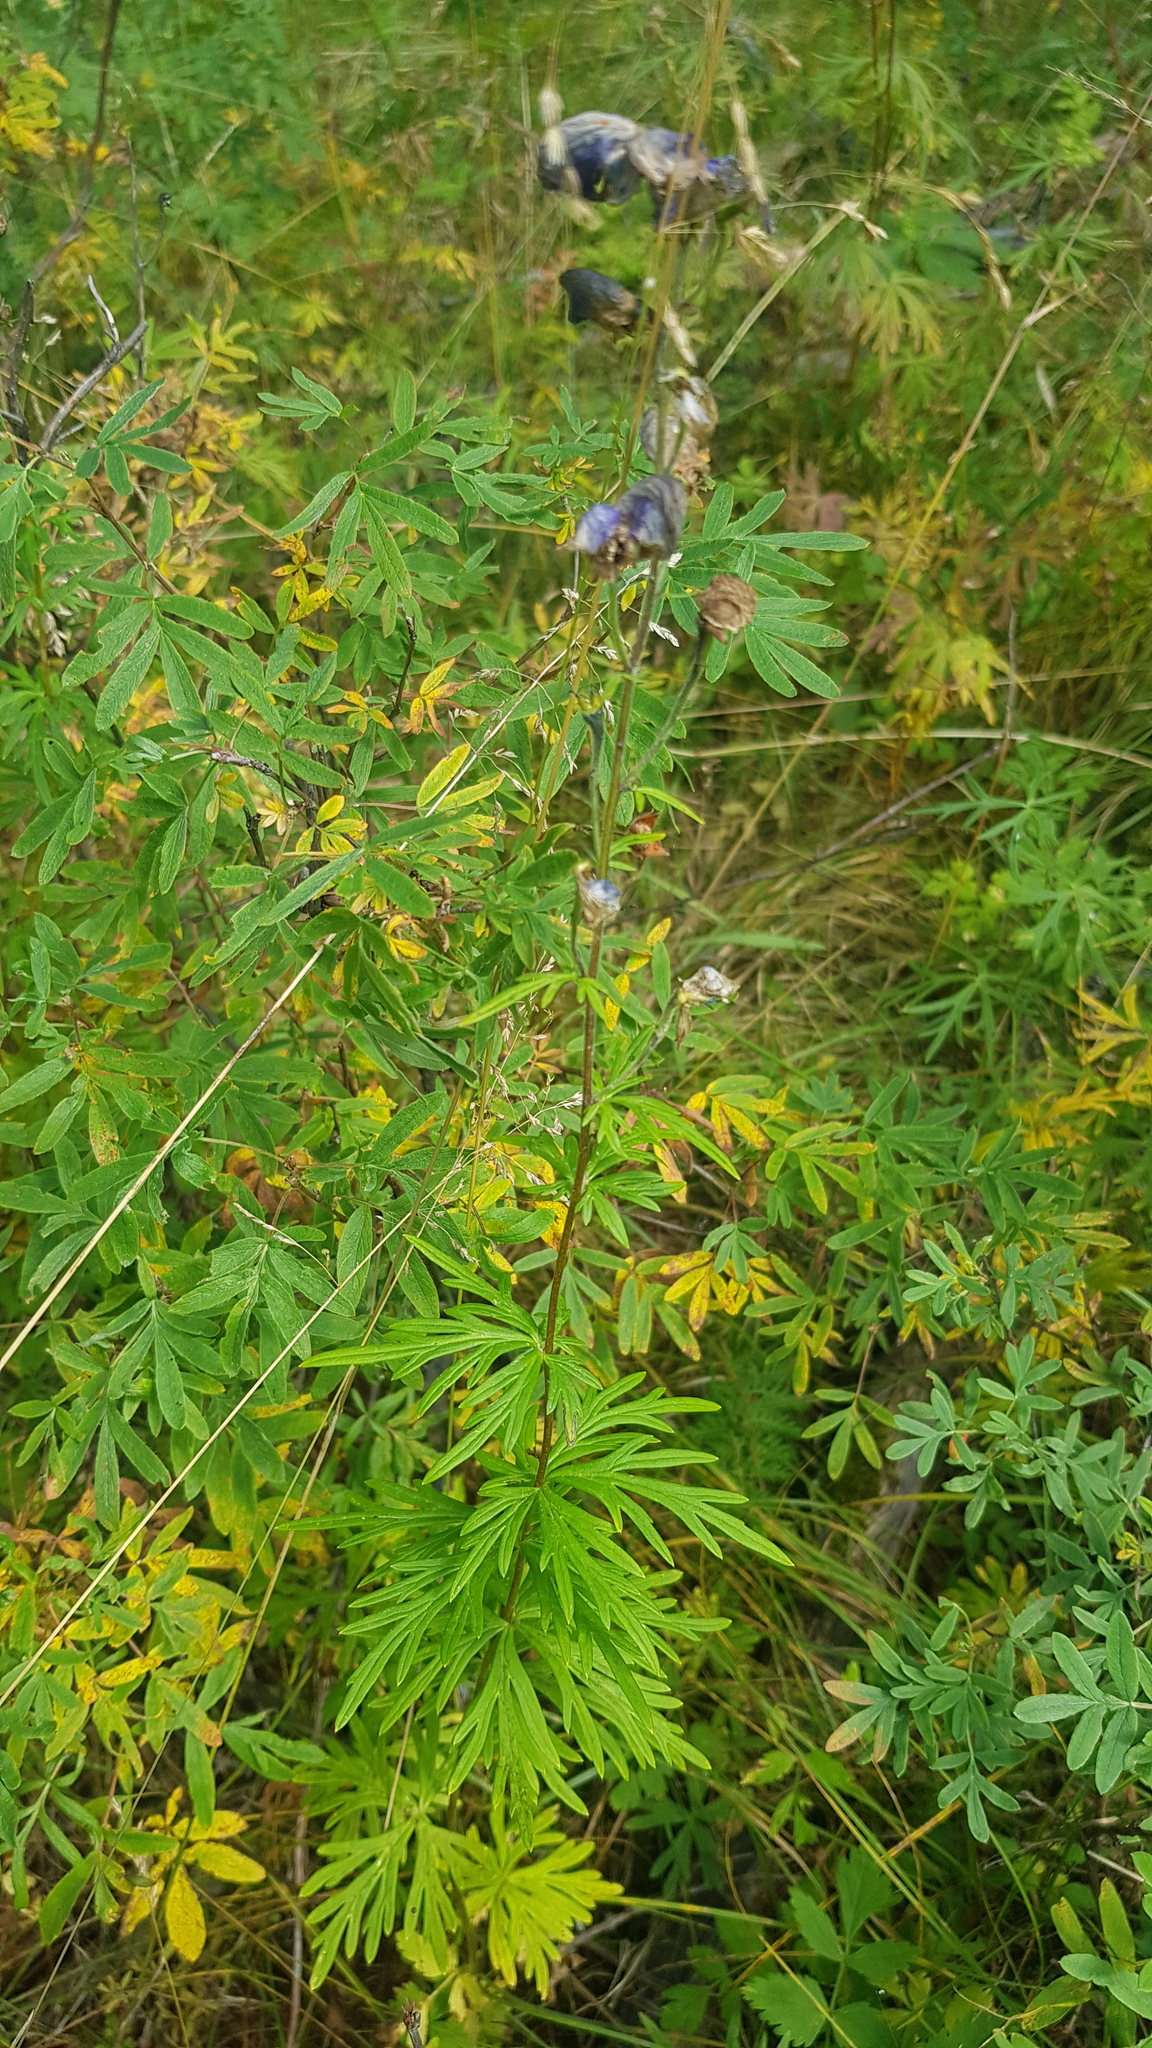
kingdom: Plantae
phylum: Tracheophyta
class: Magnoliopsida
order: Ranunculales
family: Ranunculaceae
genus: Aconitum
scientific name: Aconitum baicalense
